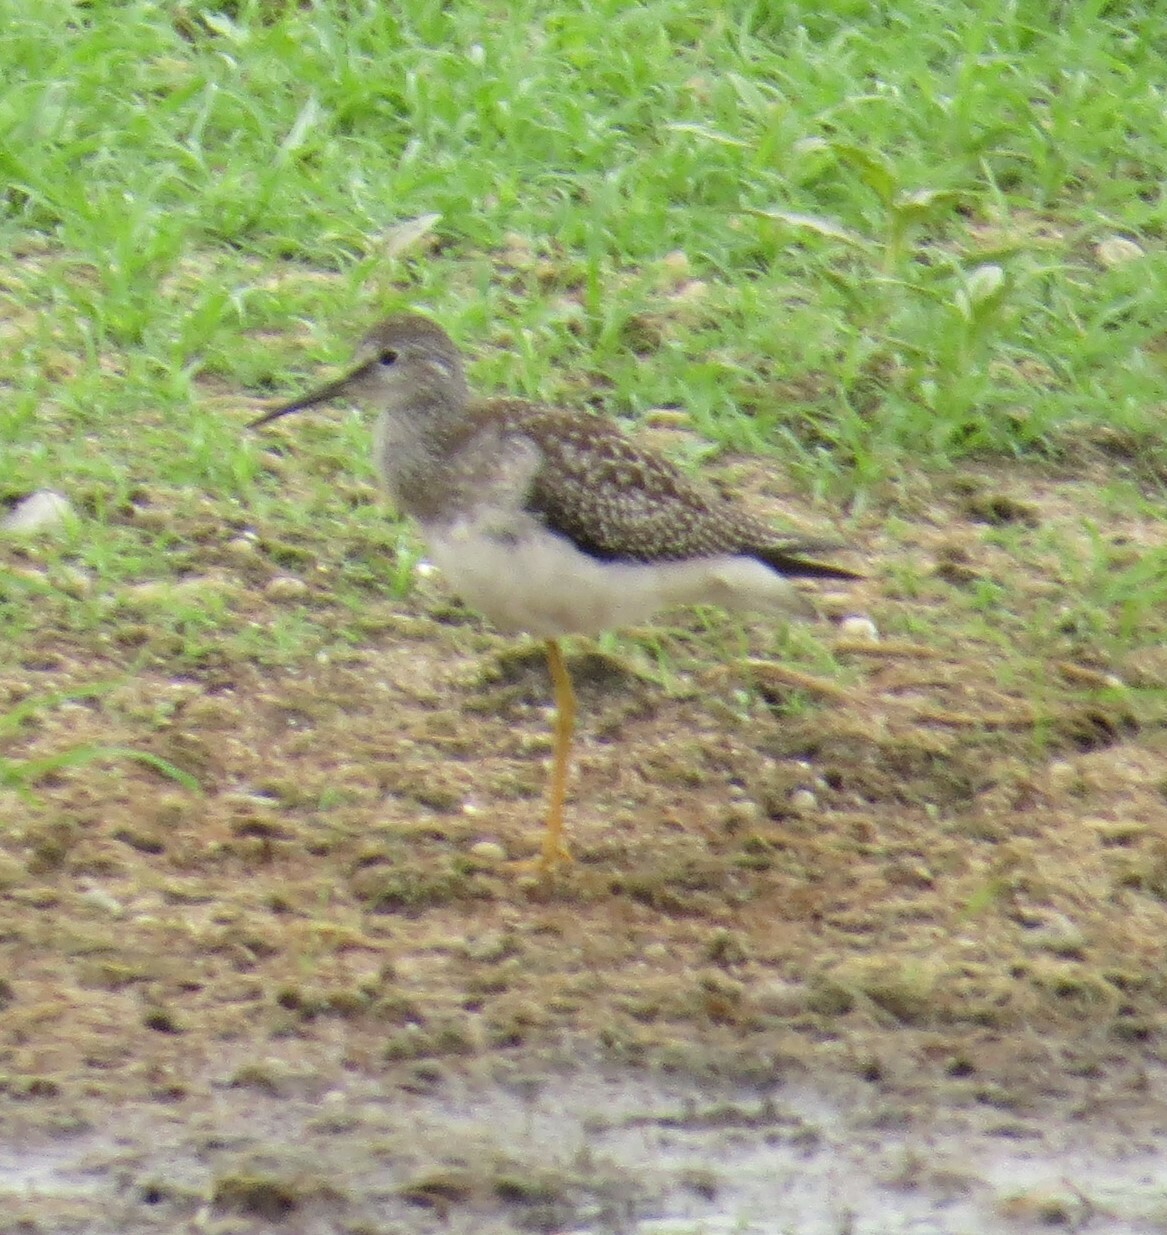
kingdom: Animalia
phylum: Chordata
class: Aves
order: Charadriiformes
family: Scolopacidae
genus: Tringa
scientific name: Tringa flavipes
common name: Lesser yellowlegs
